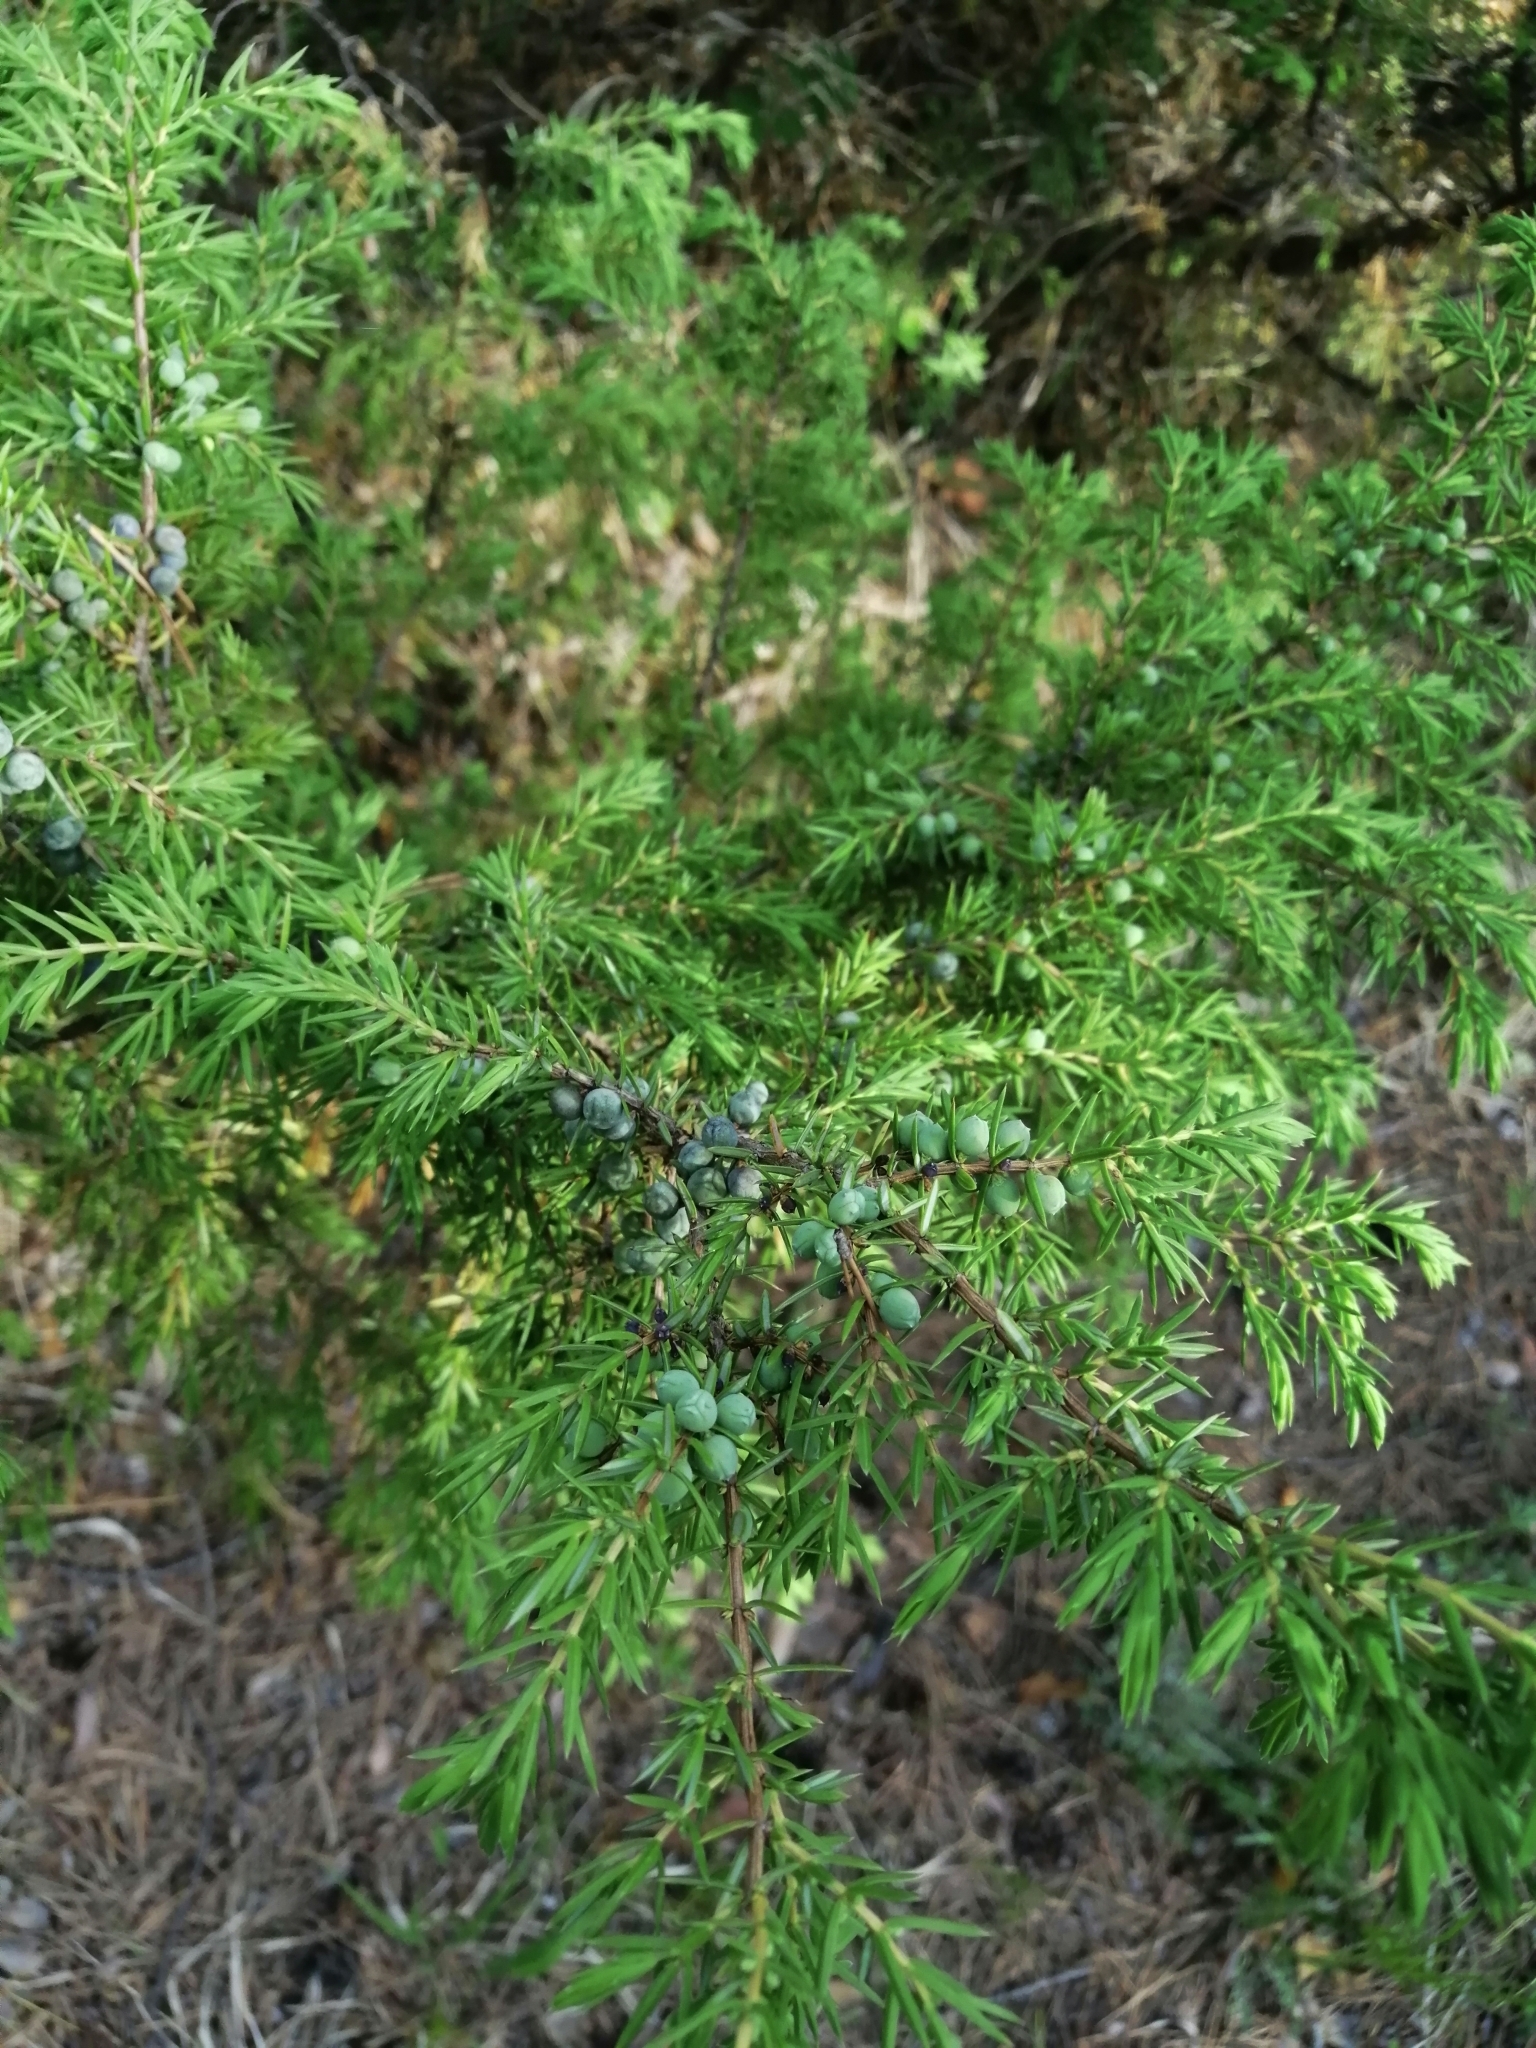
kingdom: Plantae
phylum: Tracheophyta
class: Pinopsida
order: Pinales
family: Cupressaceae
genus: Juniperus
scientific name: Juniperus communis
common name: Common juniper
